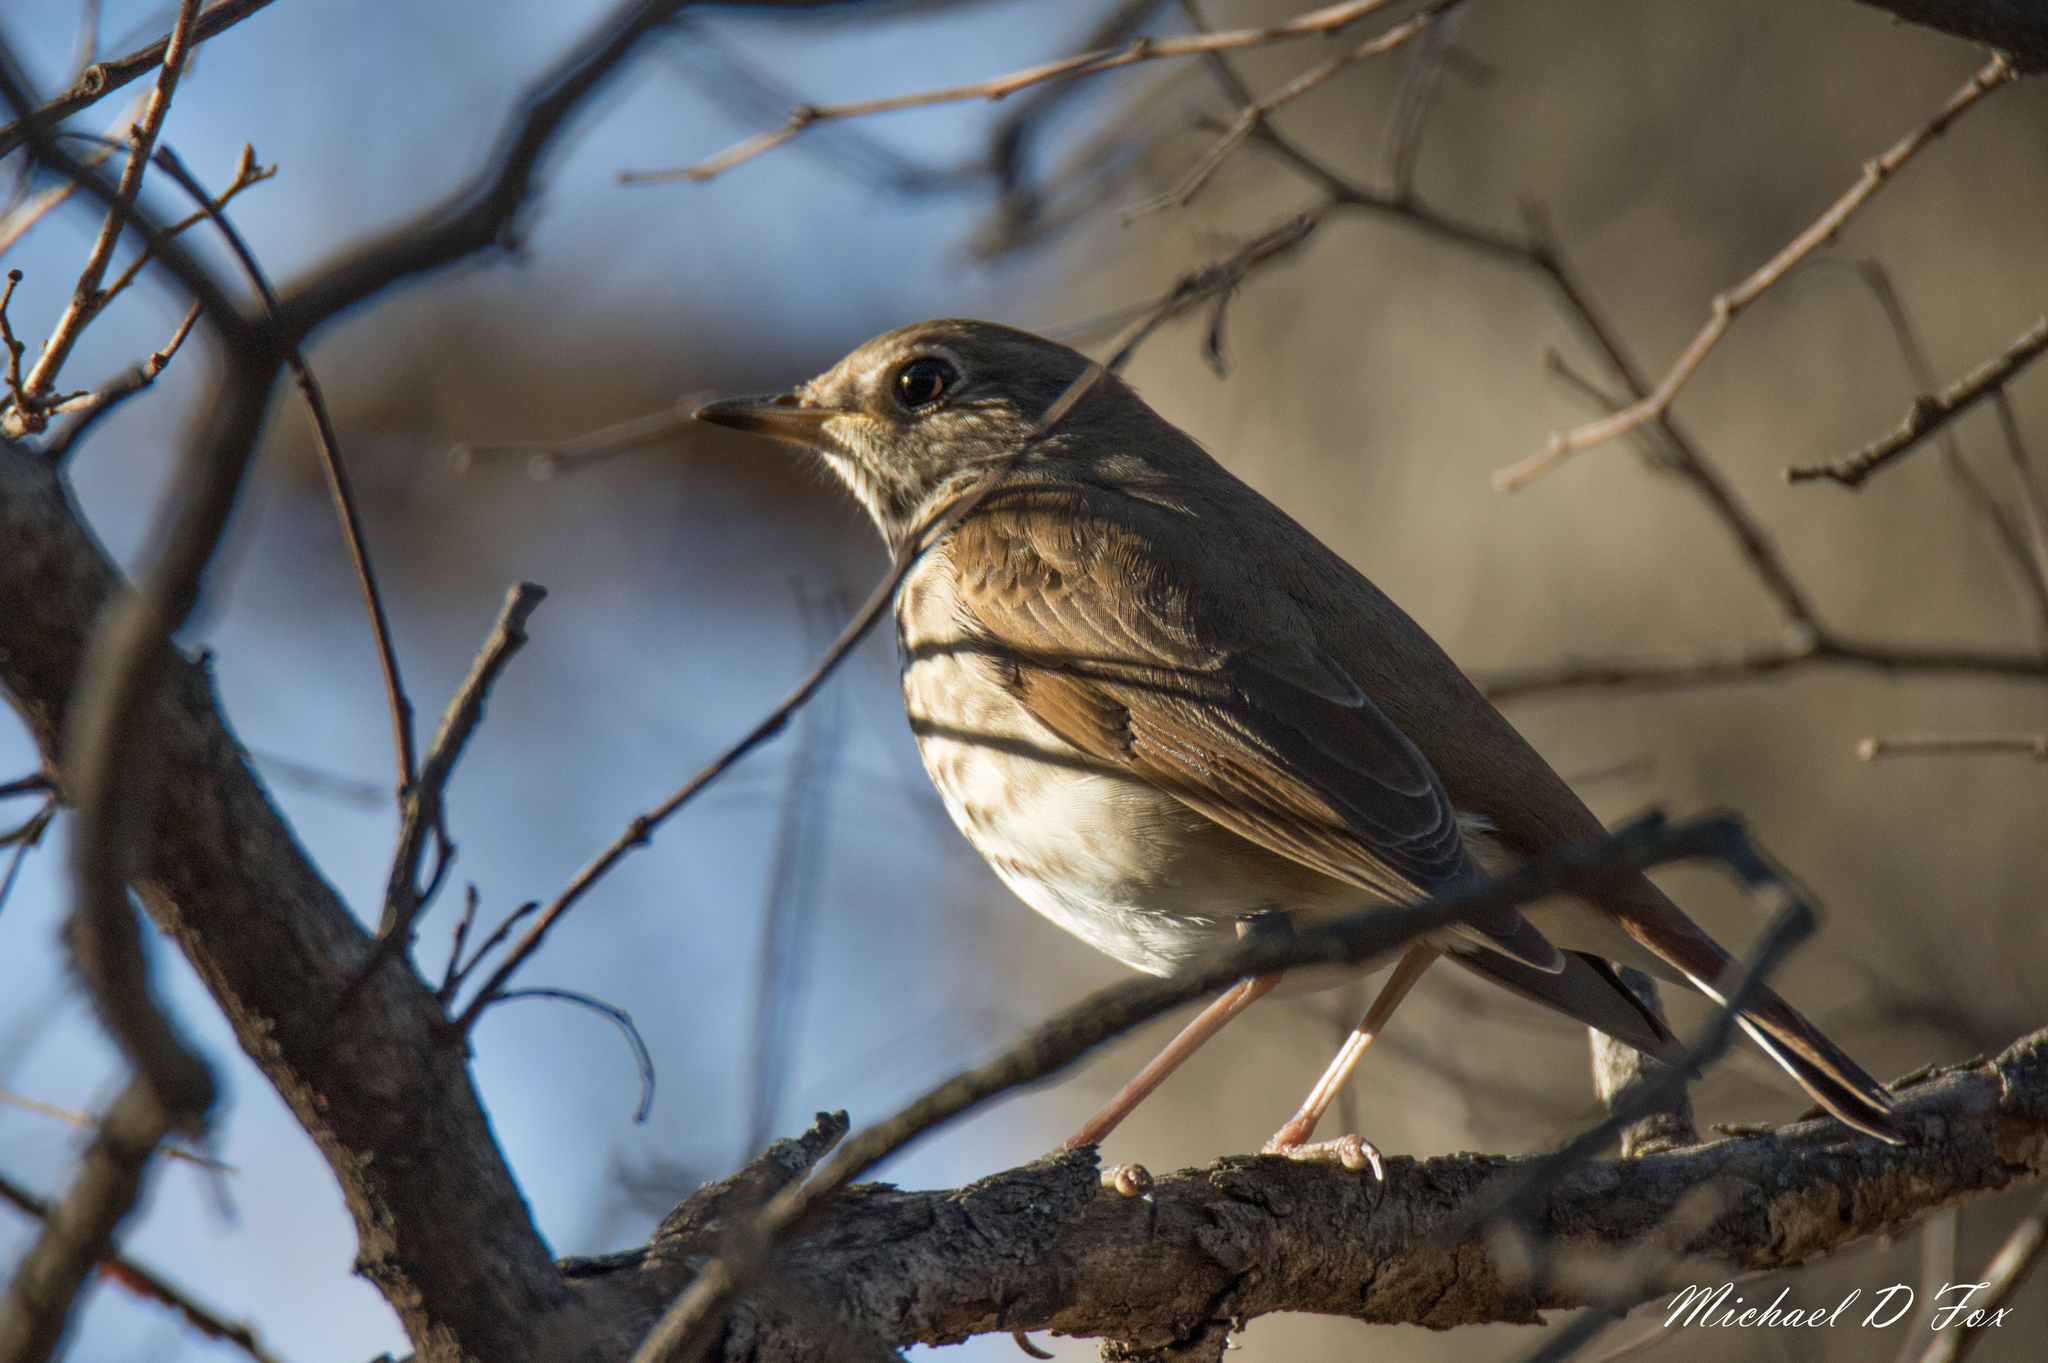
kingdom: Animalia
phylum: Chordata
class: Aves
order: Passeriformes
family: Turdidae
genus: Catharus
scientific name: Catharus guttatus
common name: Hermit thrush
